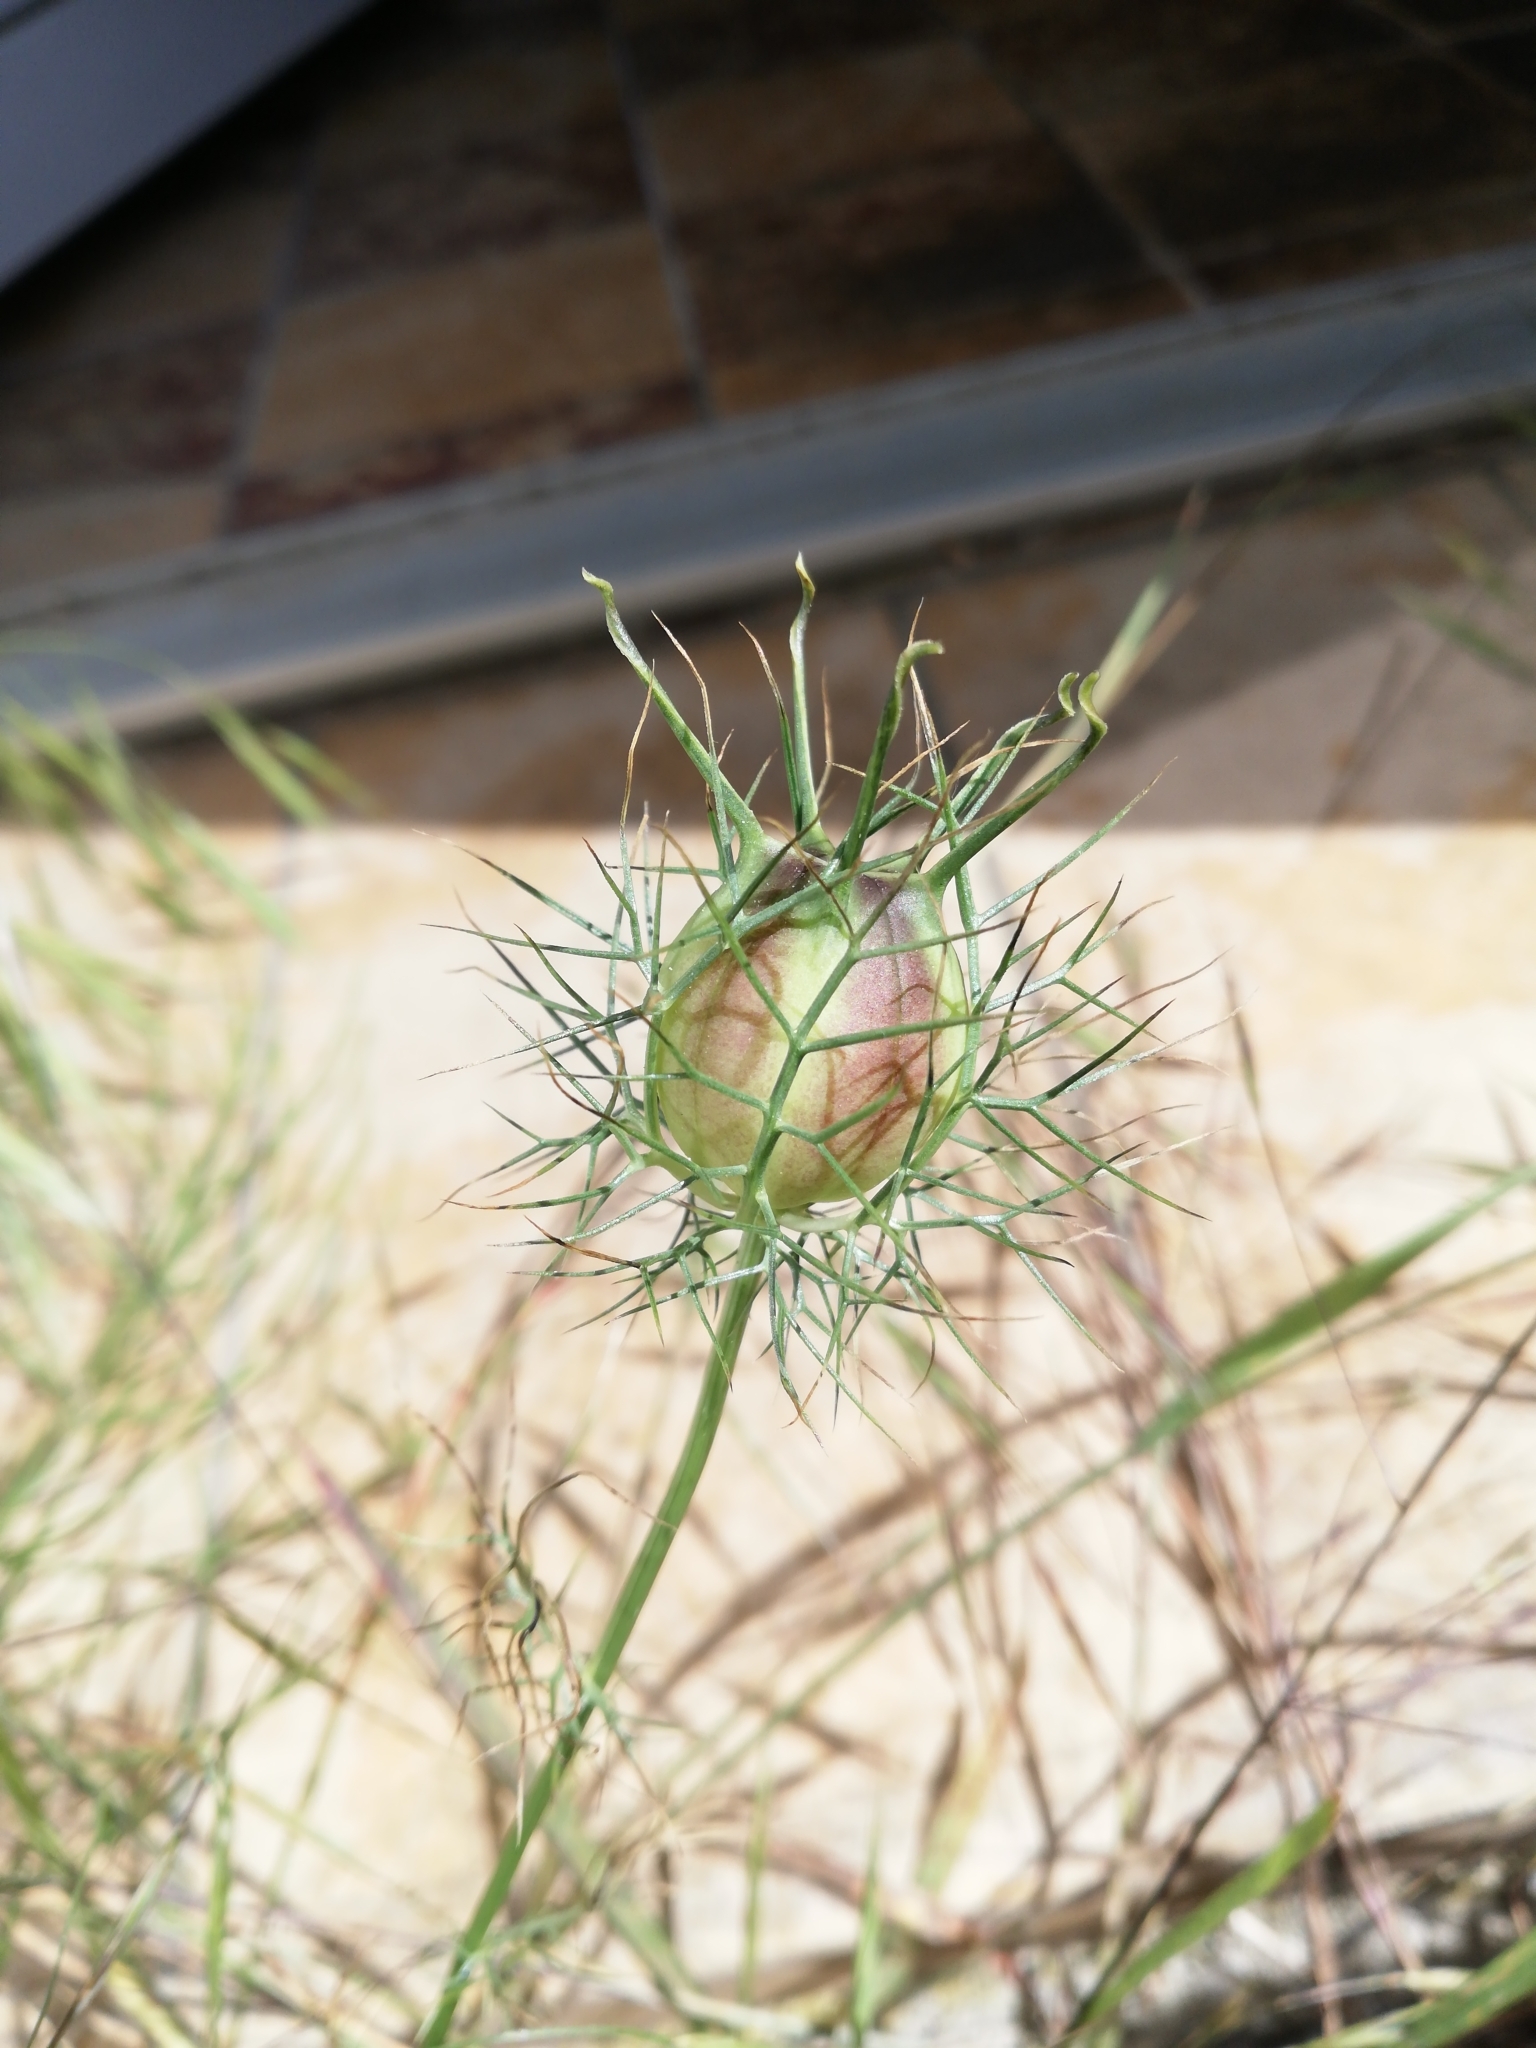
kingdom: Plantae
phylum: Tracheophyta
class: Magnoliopsida
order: Ranunculales
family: Ranunculaceae
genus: Nigella
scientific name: Nigella damascena
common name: Love-in-a-mist
